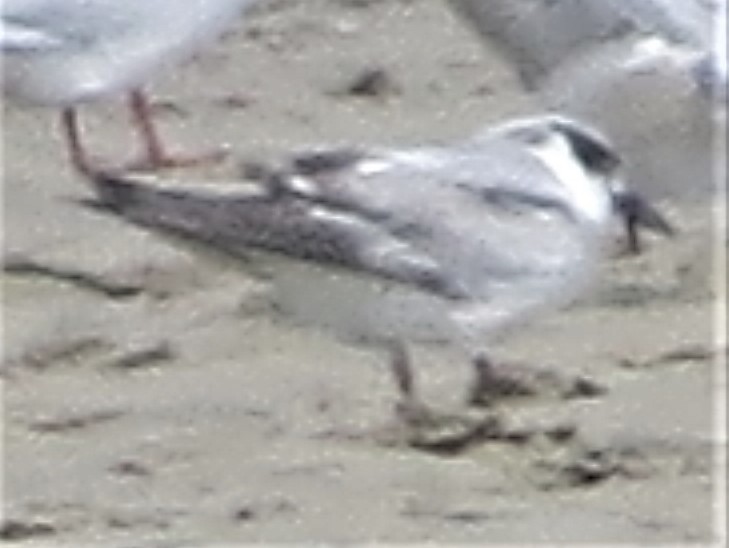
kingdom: Animalia
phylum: Chordata
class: Aves
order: Charadriiformes
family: Laridae
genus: Sterna
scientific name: Sterna forsteri
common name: Forster's tern
